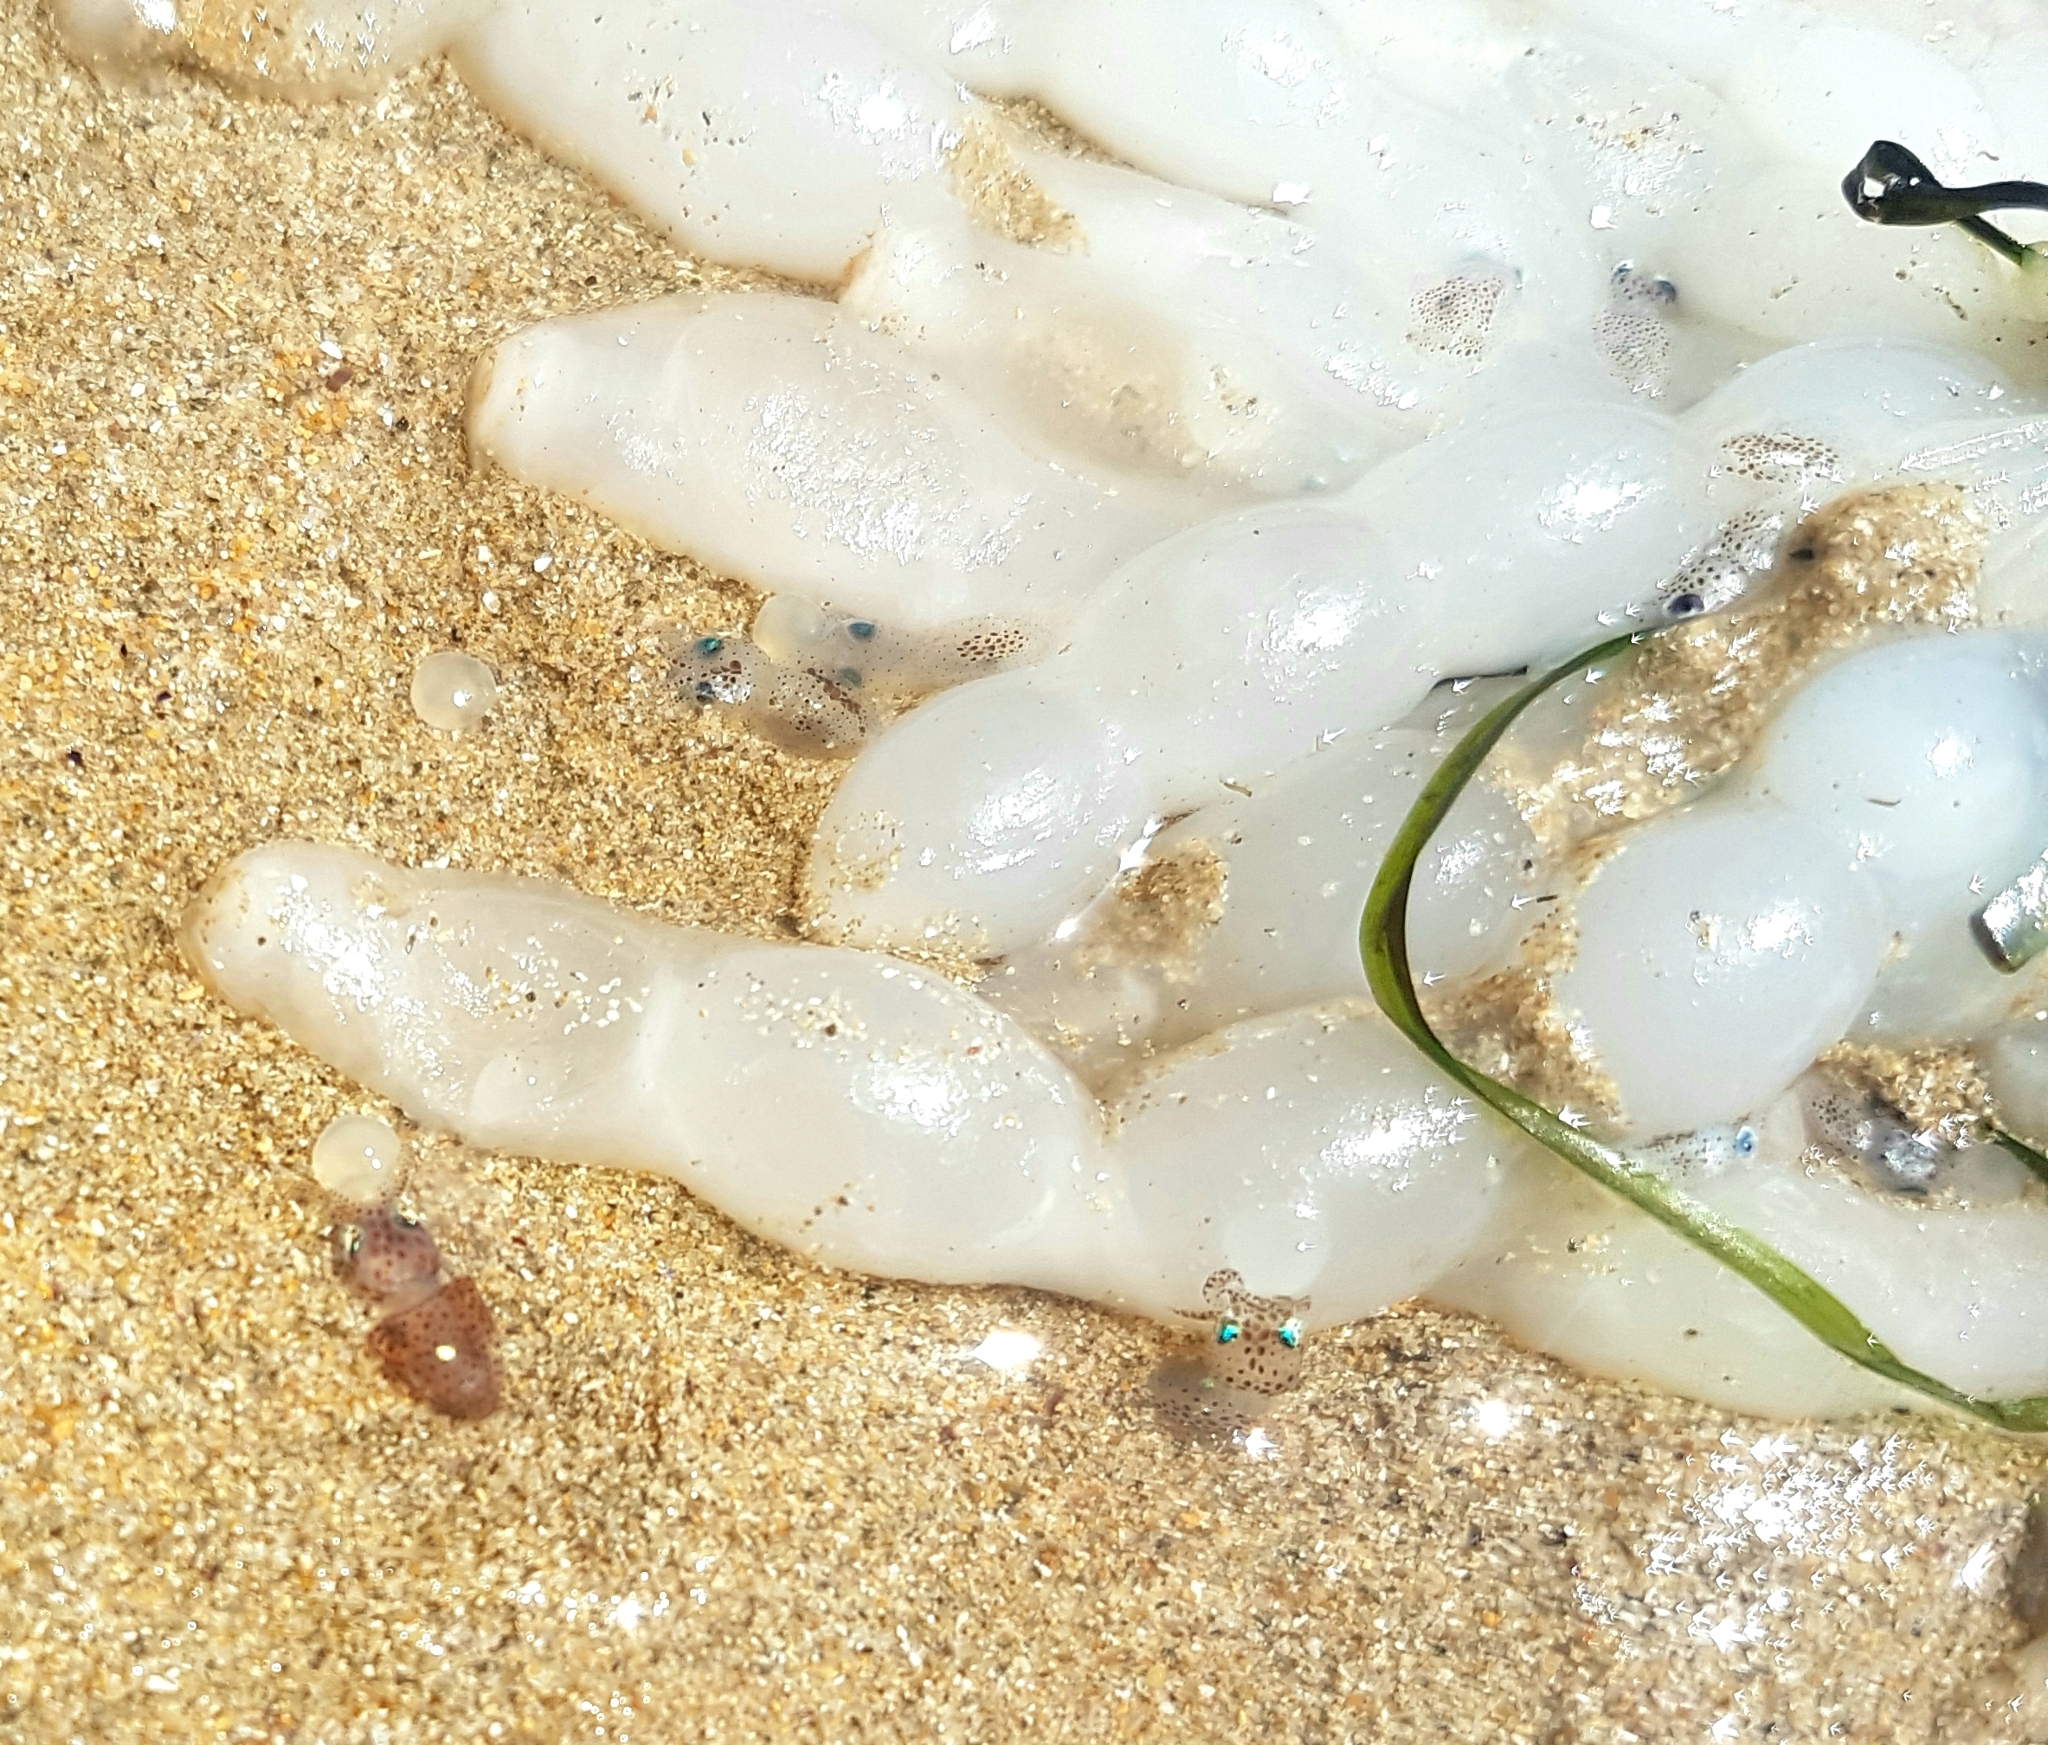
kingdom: Animalia
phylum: Mollusca
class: Cephalopoda
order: Myopsida
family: Loliginidae
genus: Sepioteuthis
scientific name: Sepioteuthis australis
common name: Southern reef squid
